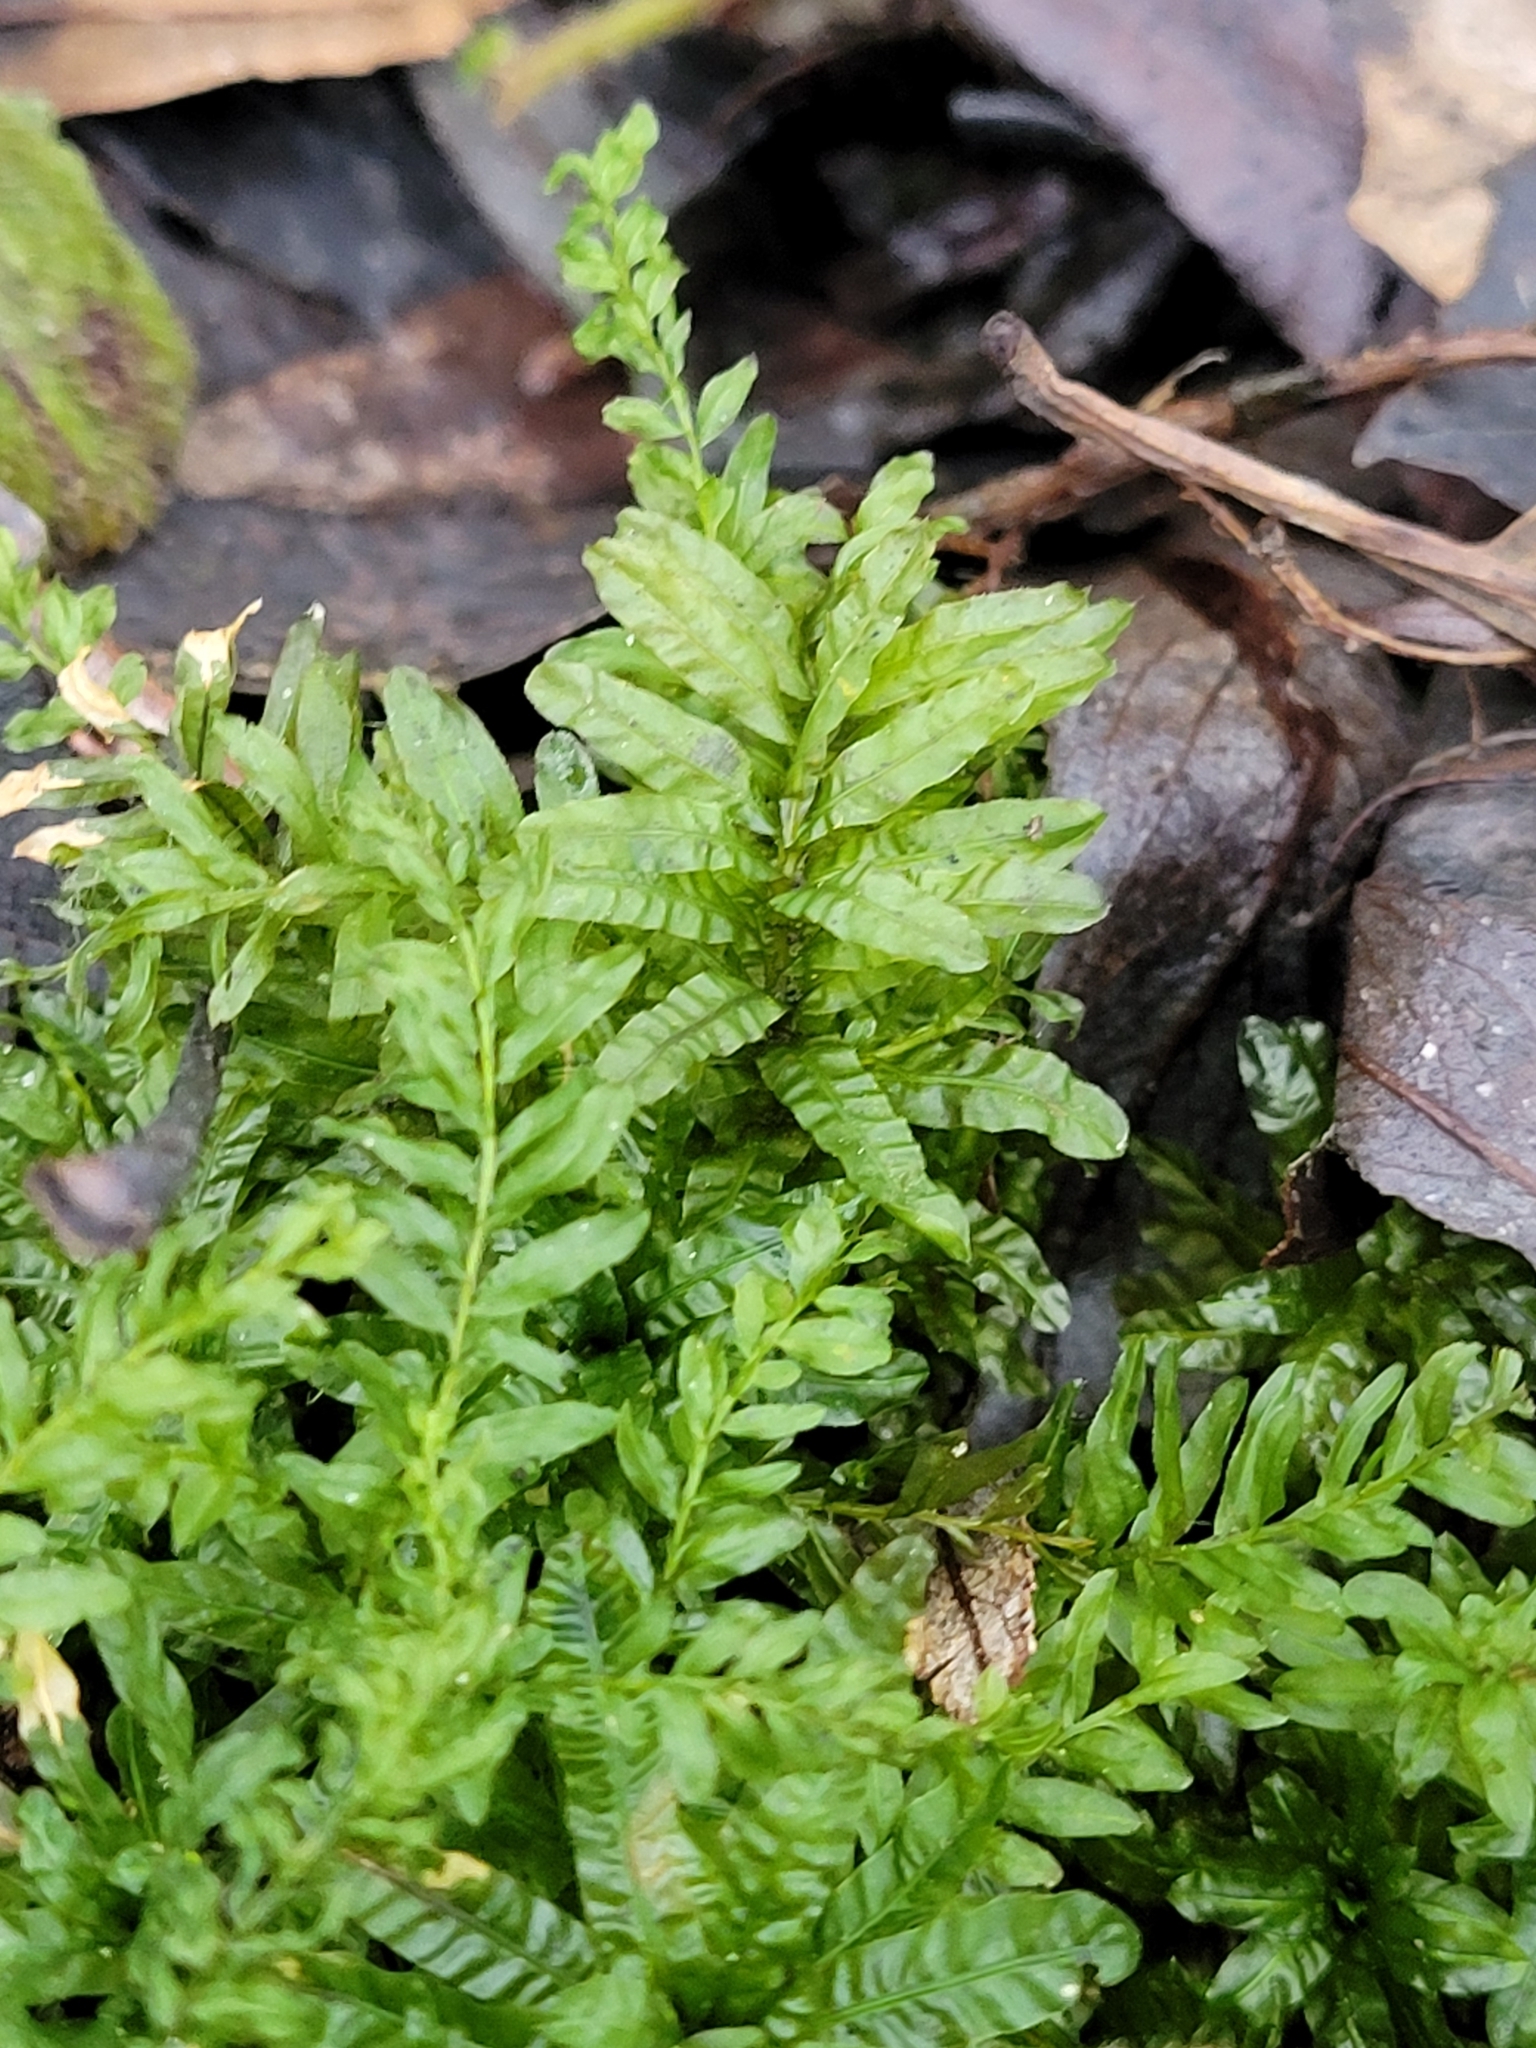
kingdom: Plantae
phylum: Bryophyta
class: Bryopsida
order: Bryales
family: Mniaceae
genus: Plagiomnium
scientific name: Plagiomnium undulatum
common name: Hart's-tongue thyme-moss
